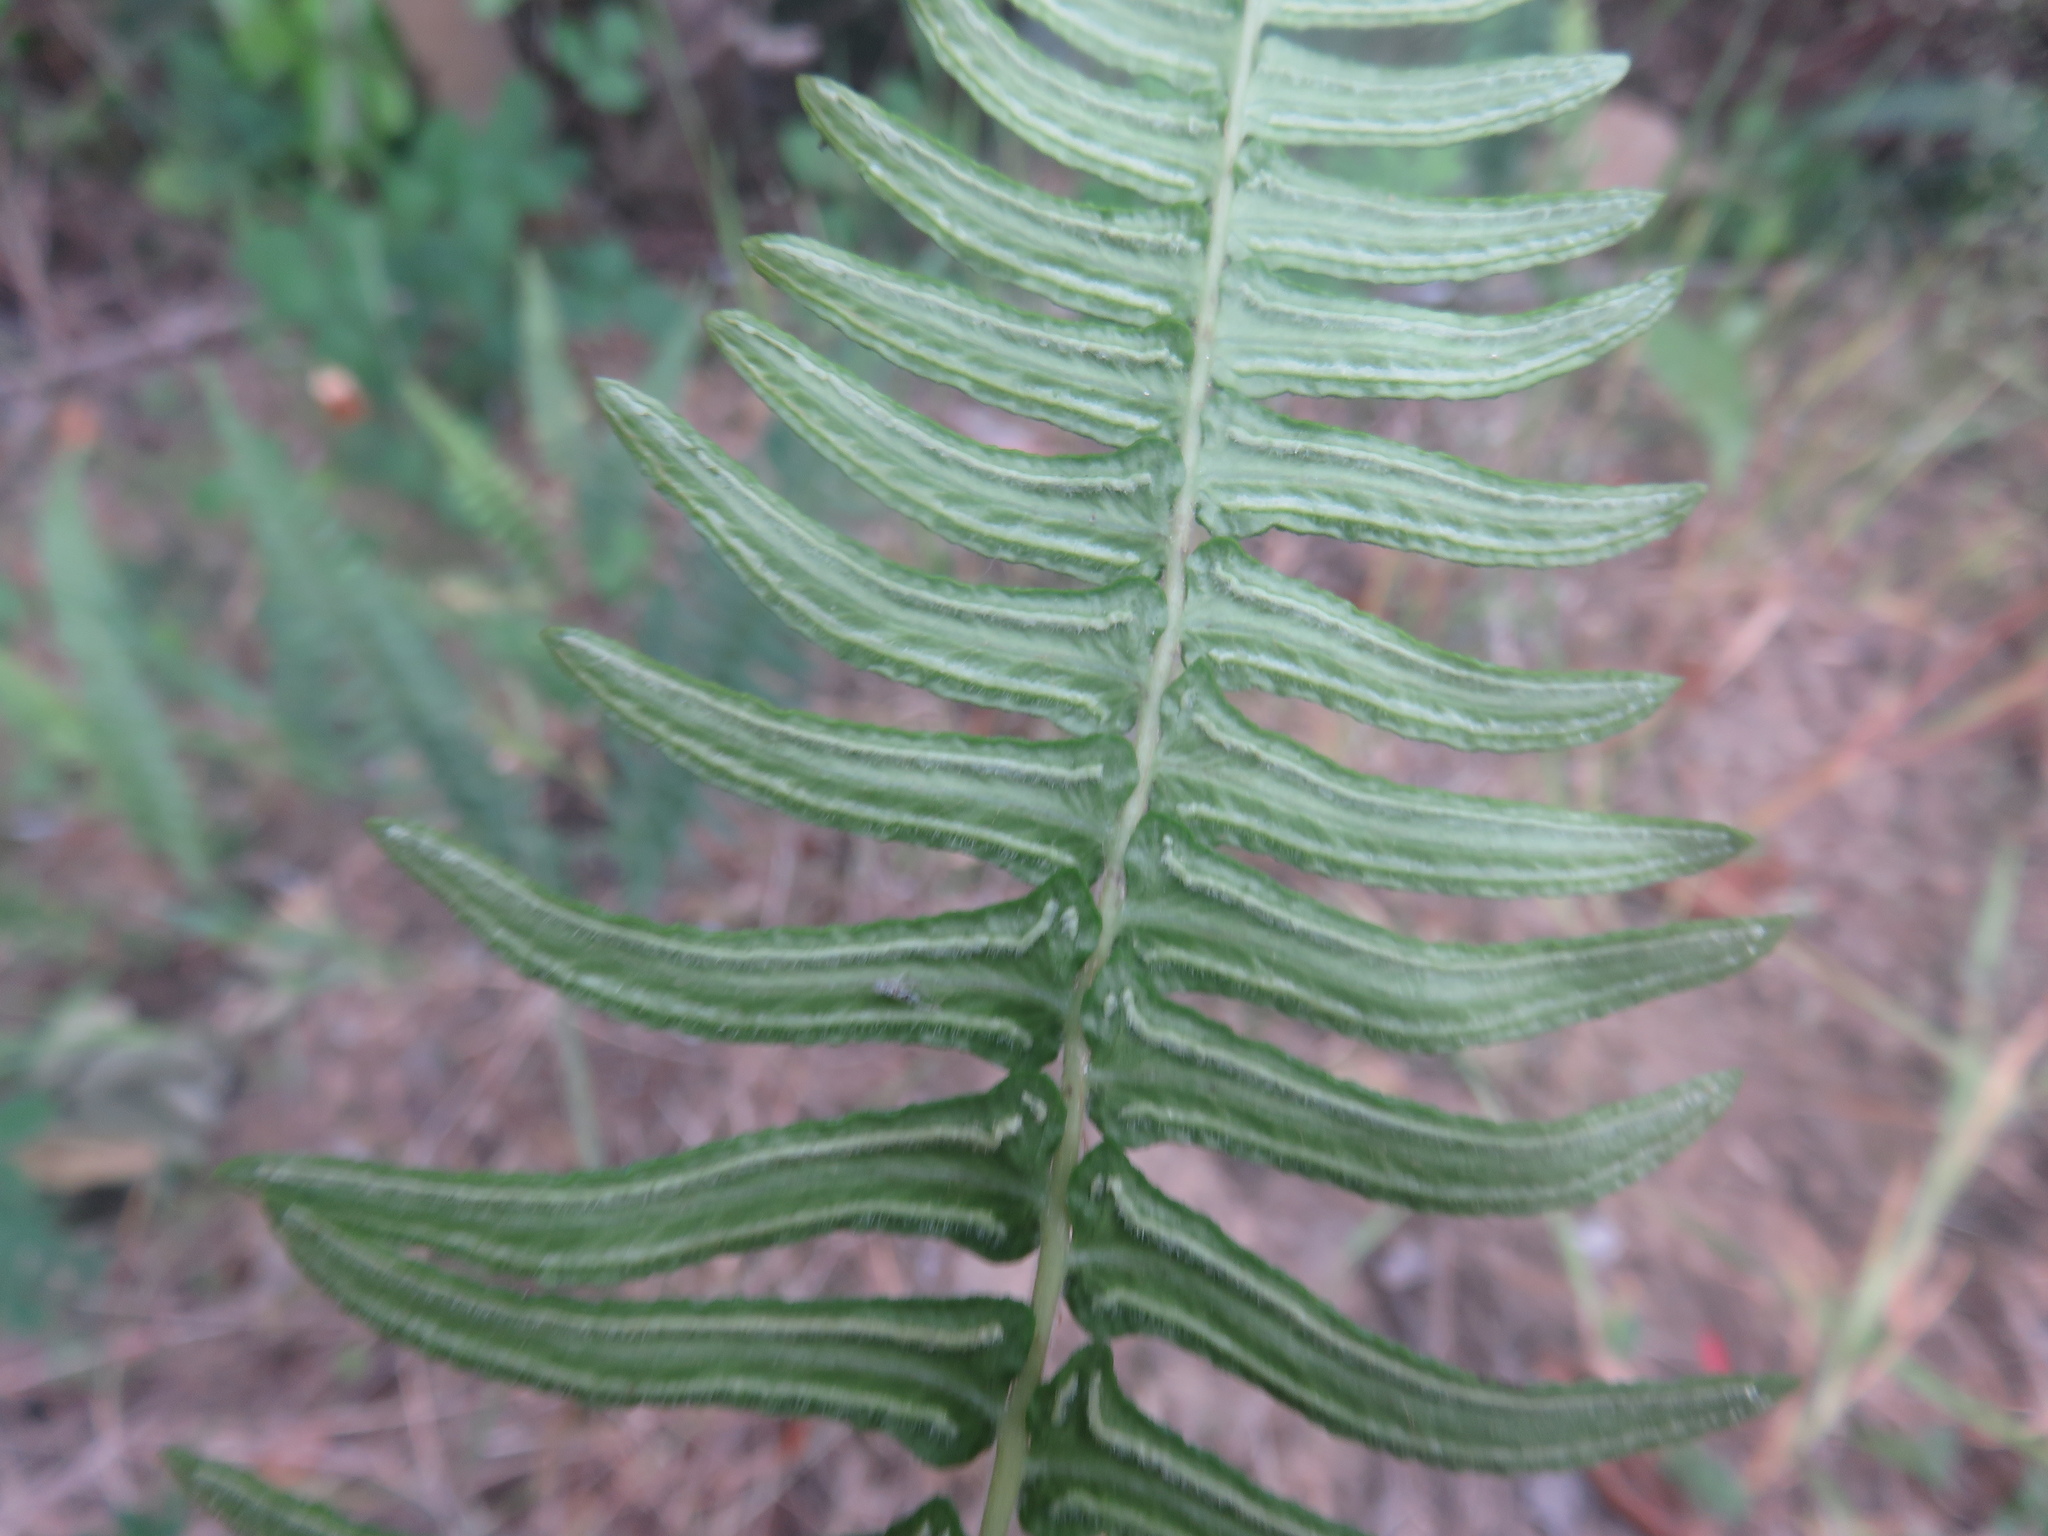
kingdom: Plantae
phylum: Tracheophyta
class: Polypodiopsida
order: Polypodiales
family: Blechnaceae
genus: Blechnum
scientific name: Blechnum hastatum
